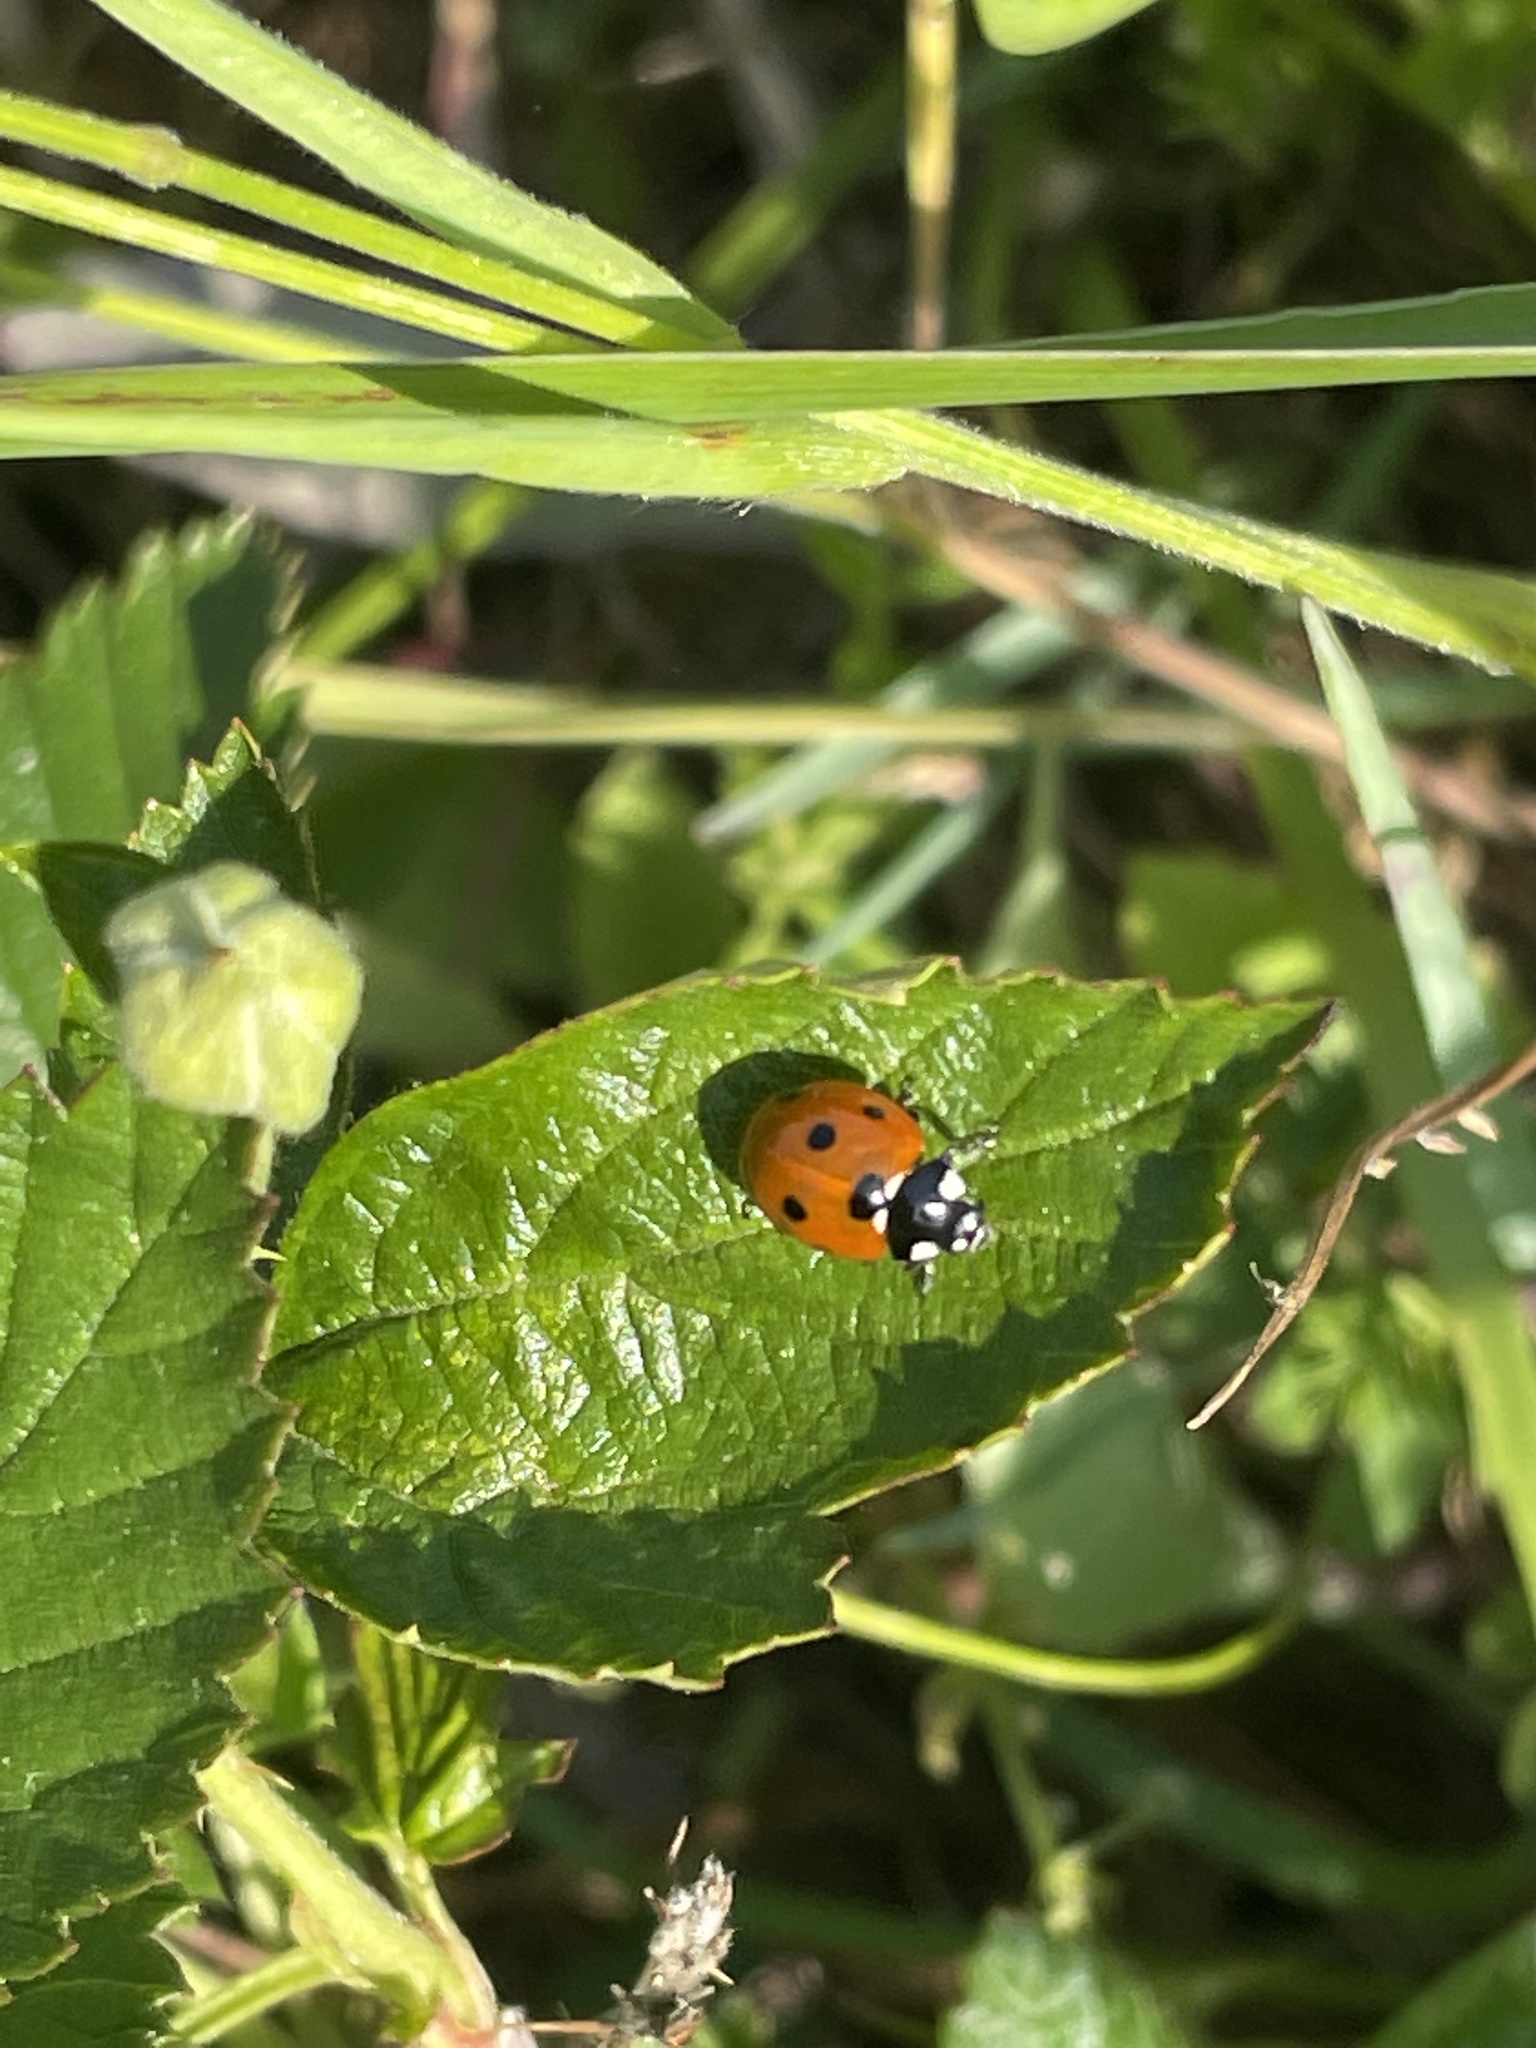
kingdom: Animalia
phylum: Arthropoda
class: Insecta
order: Coleoptera
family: Coccinellidae
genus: Coccinella
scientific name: Coccinella septempunctata
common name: Sevenspotted lady beetle
